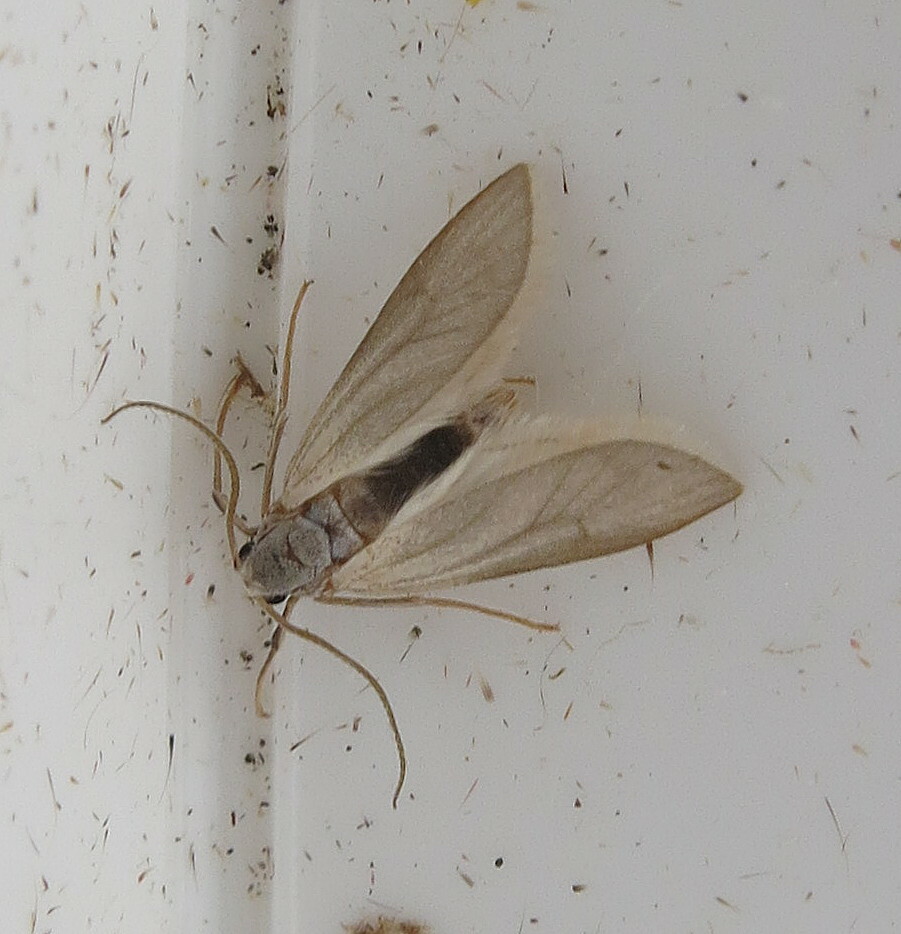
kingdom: Animalia
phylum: Arthropoda
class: Insecta
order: Lepidoptera
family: Crambidae
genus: Acentria
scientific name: Acentria ephemerella
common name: European water moth
